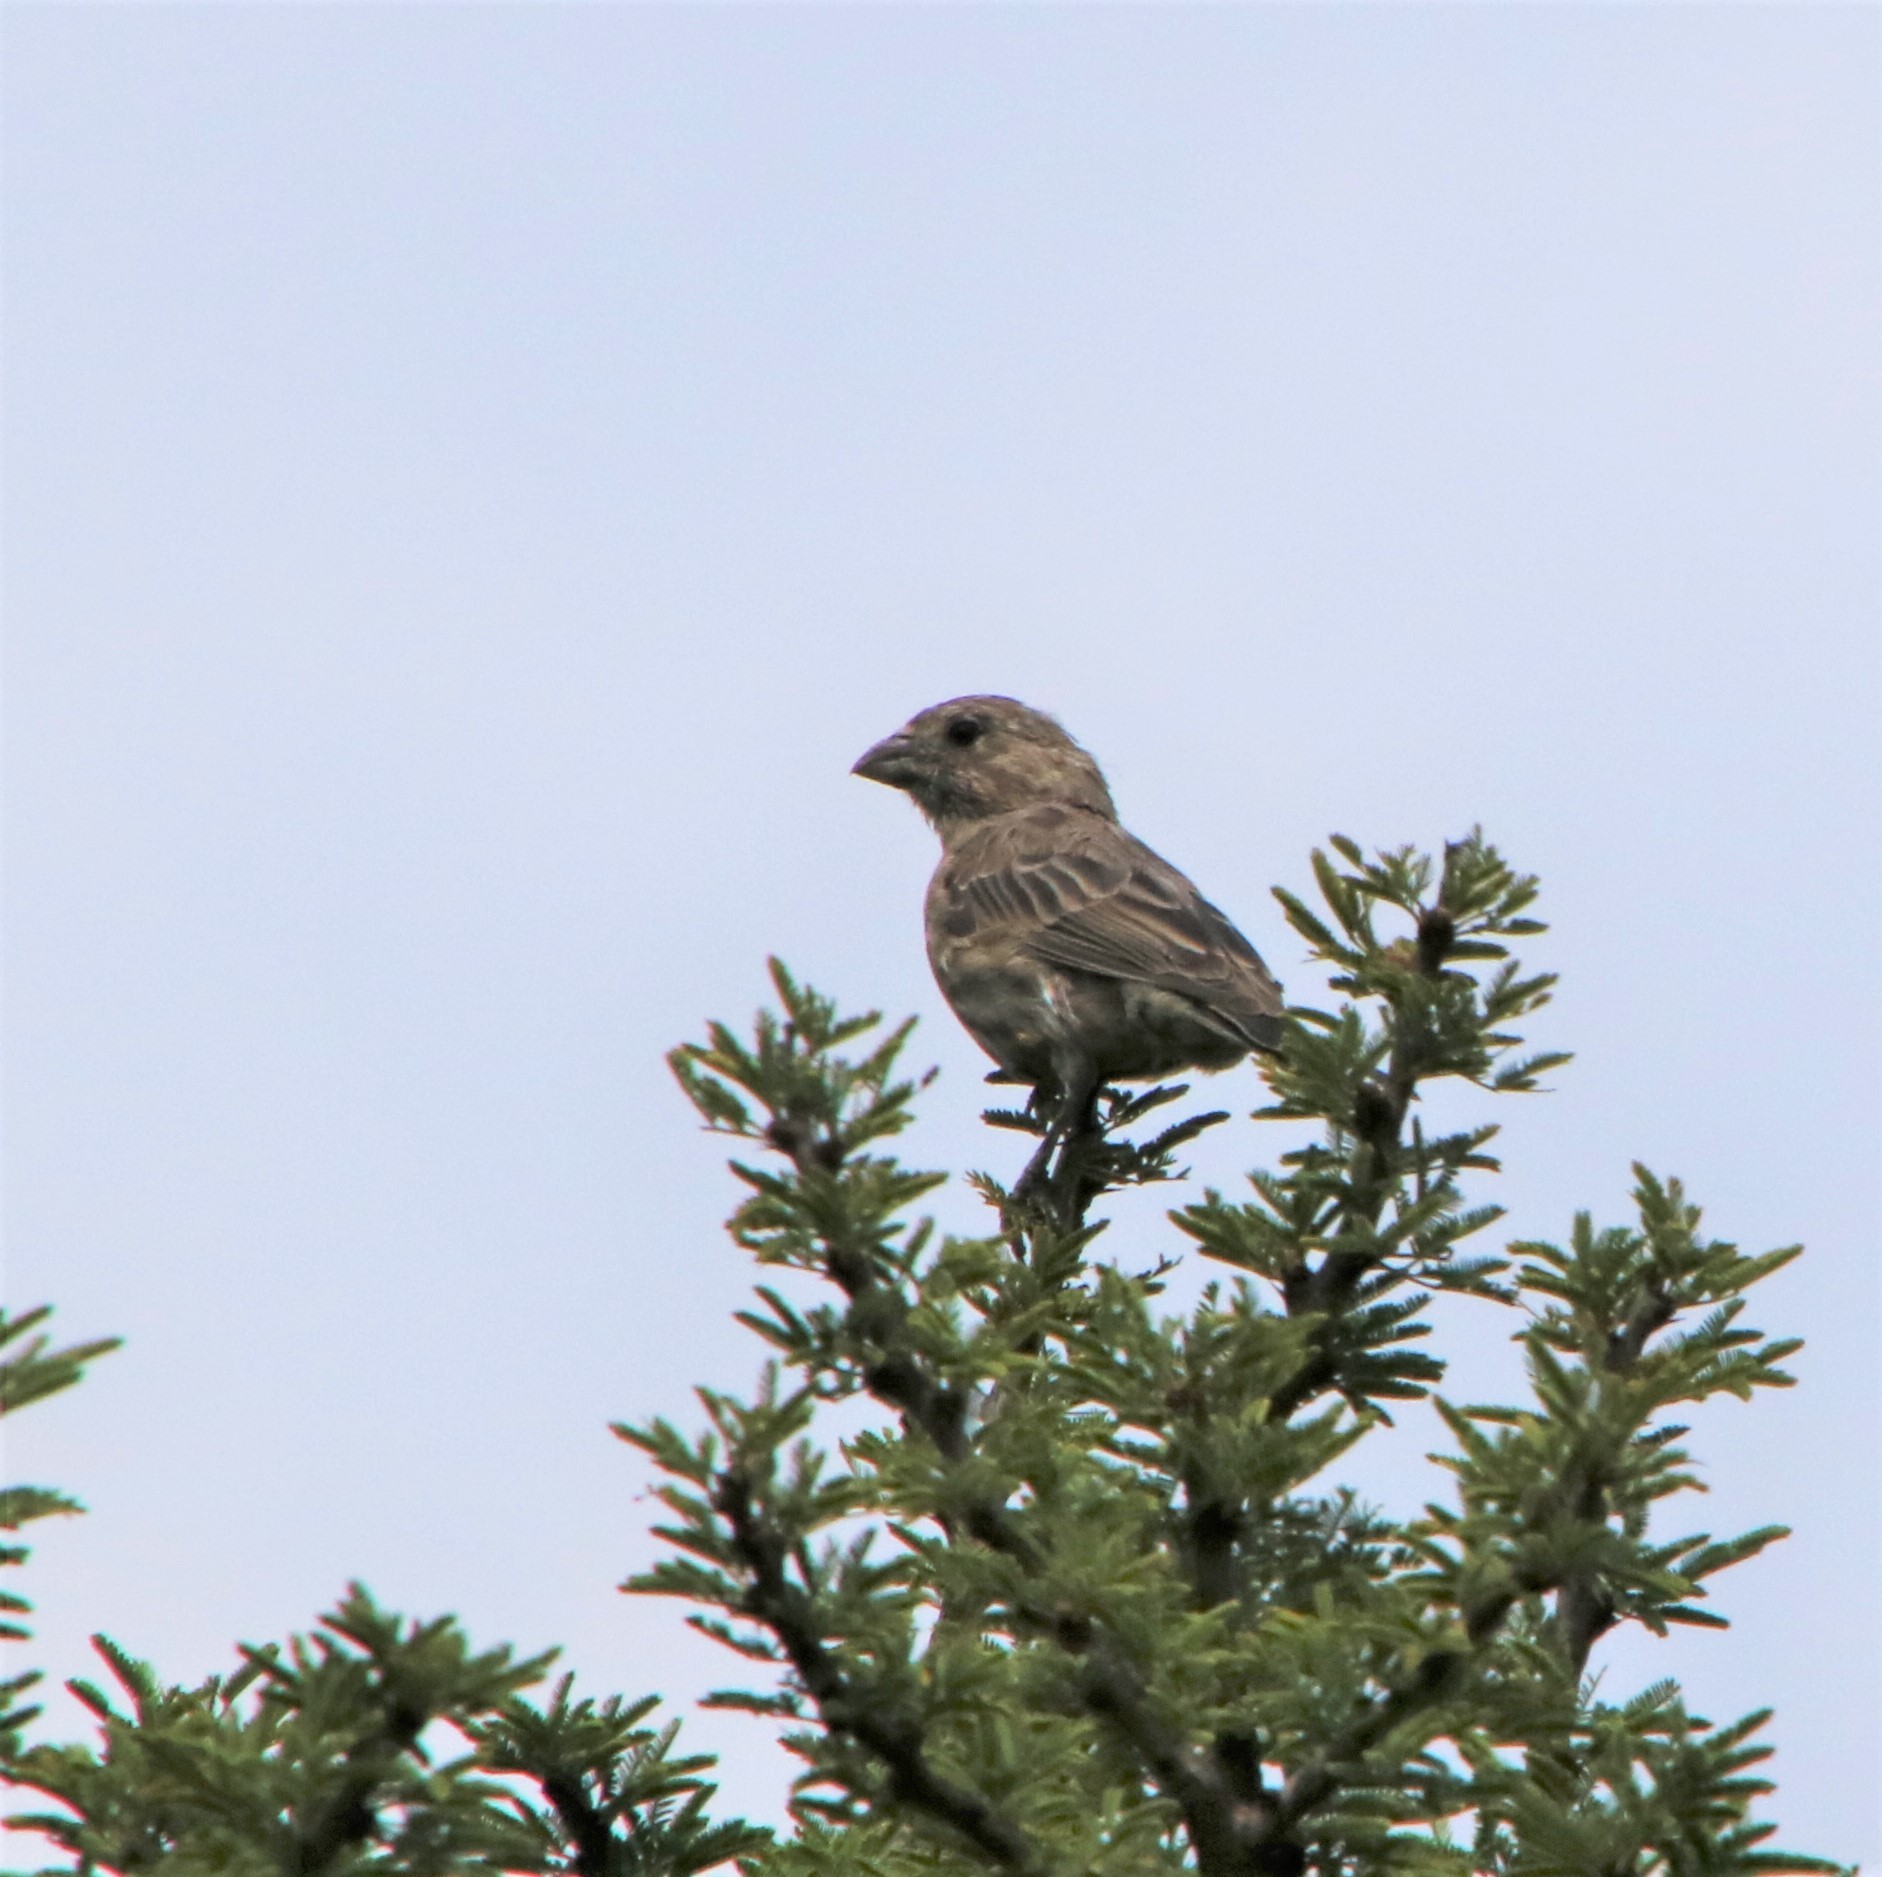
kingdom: Animalia
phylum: Chordata
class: Aves
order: Passeriformes
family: Fringillidae
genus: Haemorhous
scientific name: Haemorhous mexicanus
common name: House finch
